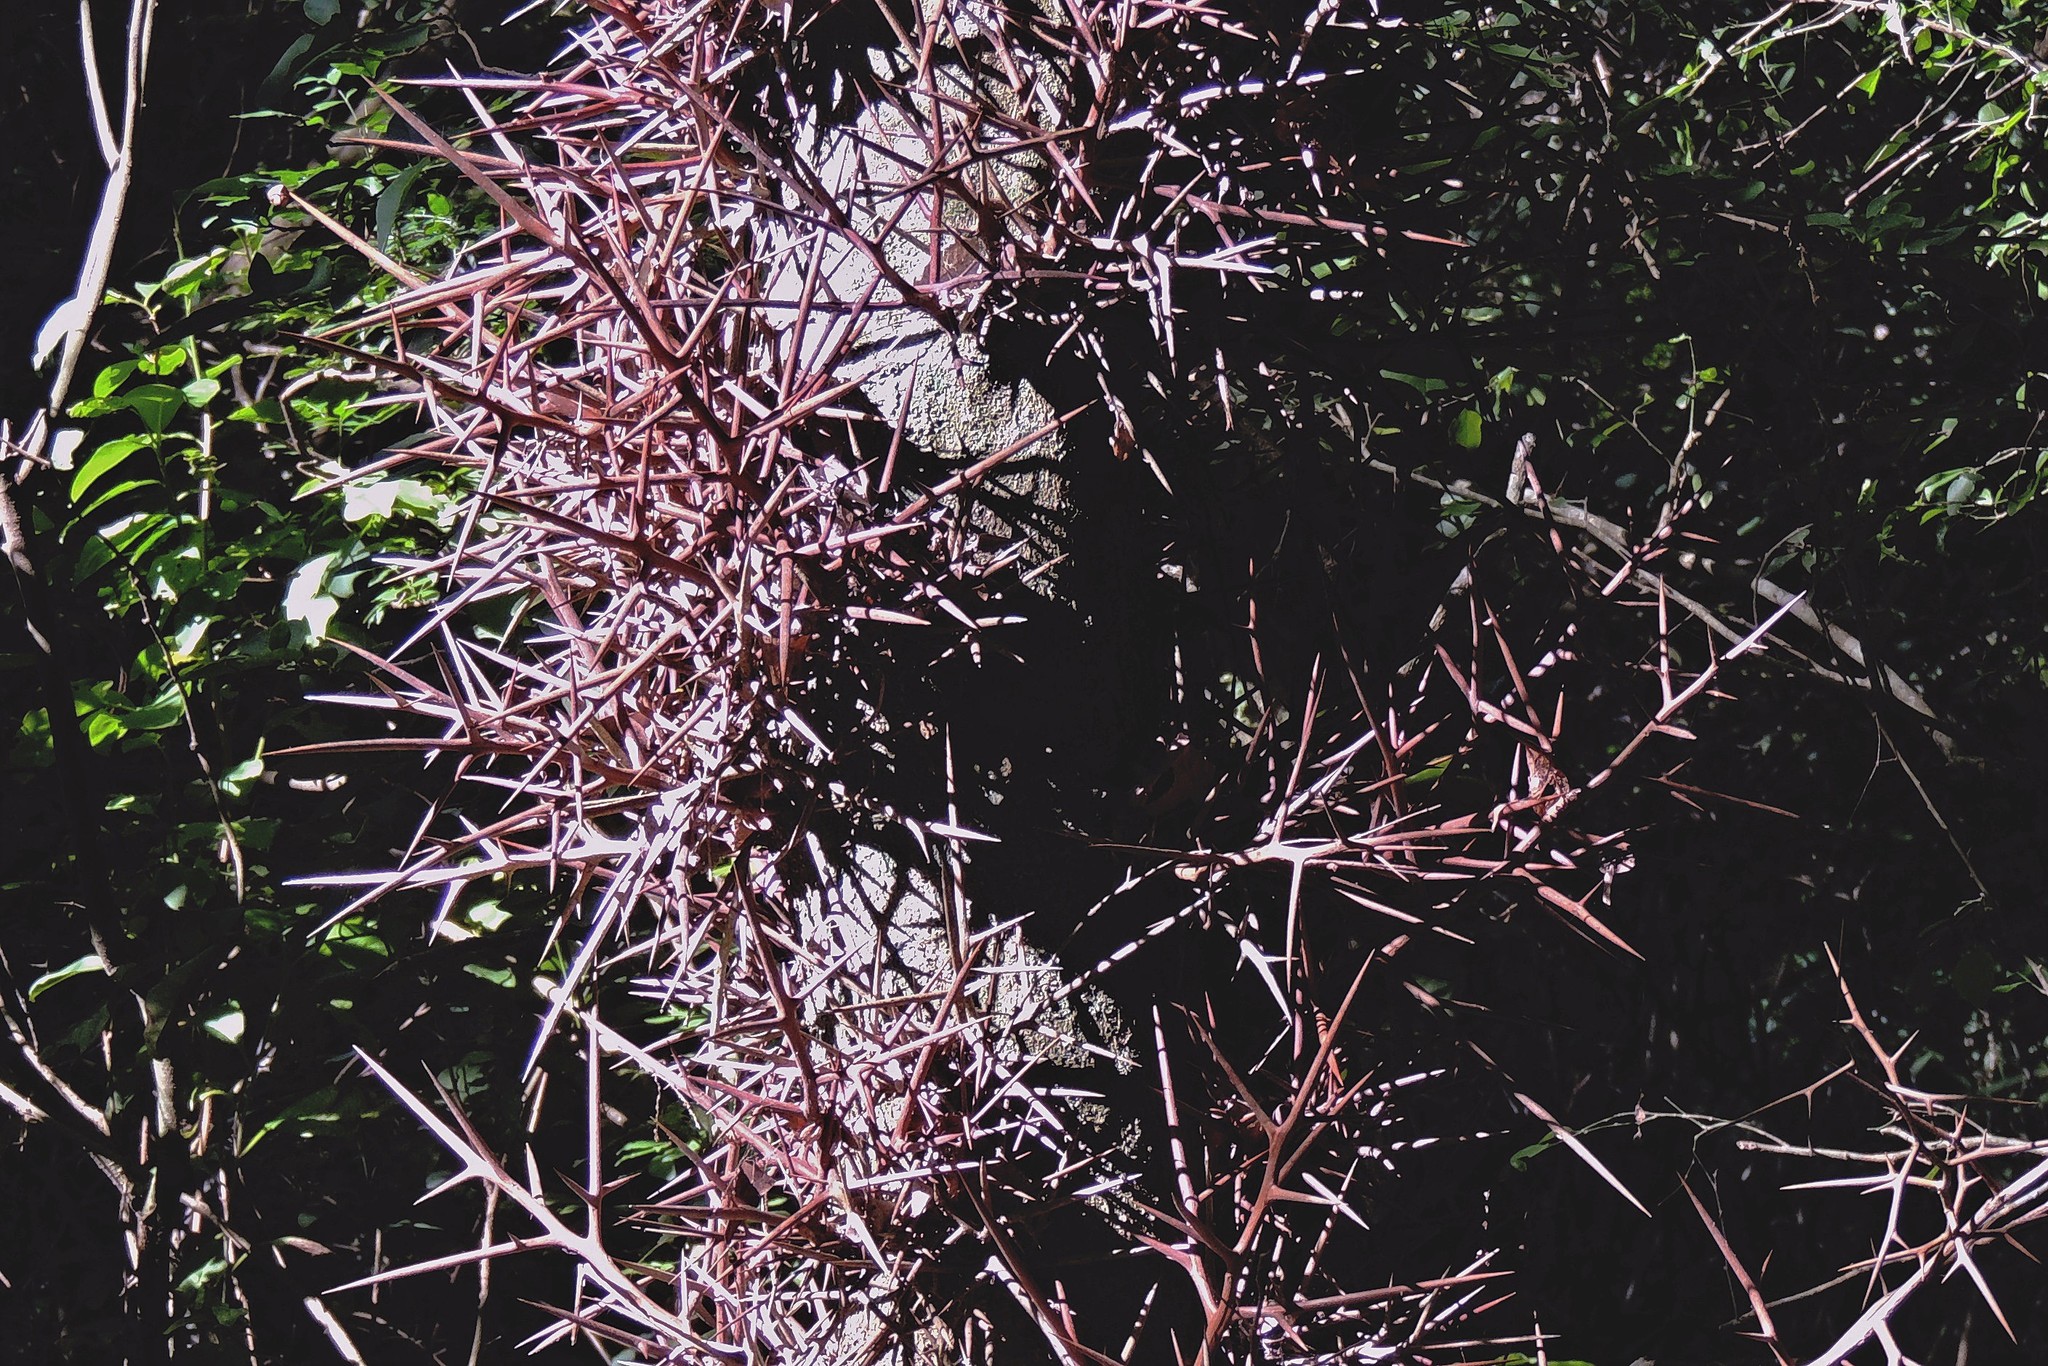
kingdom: Plantae
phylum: Tracheophyta
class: Magnoliopsida
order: Fabales
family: Fabaceae
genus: Gleditsia
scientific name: Gleditsia amorphoides
